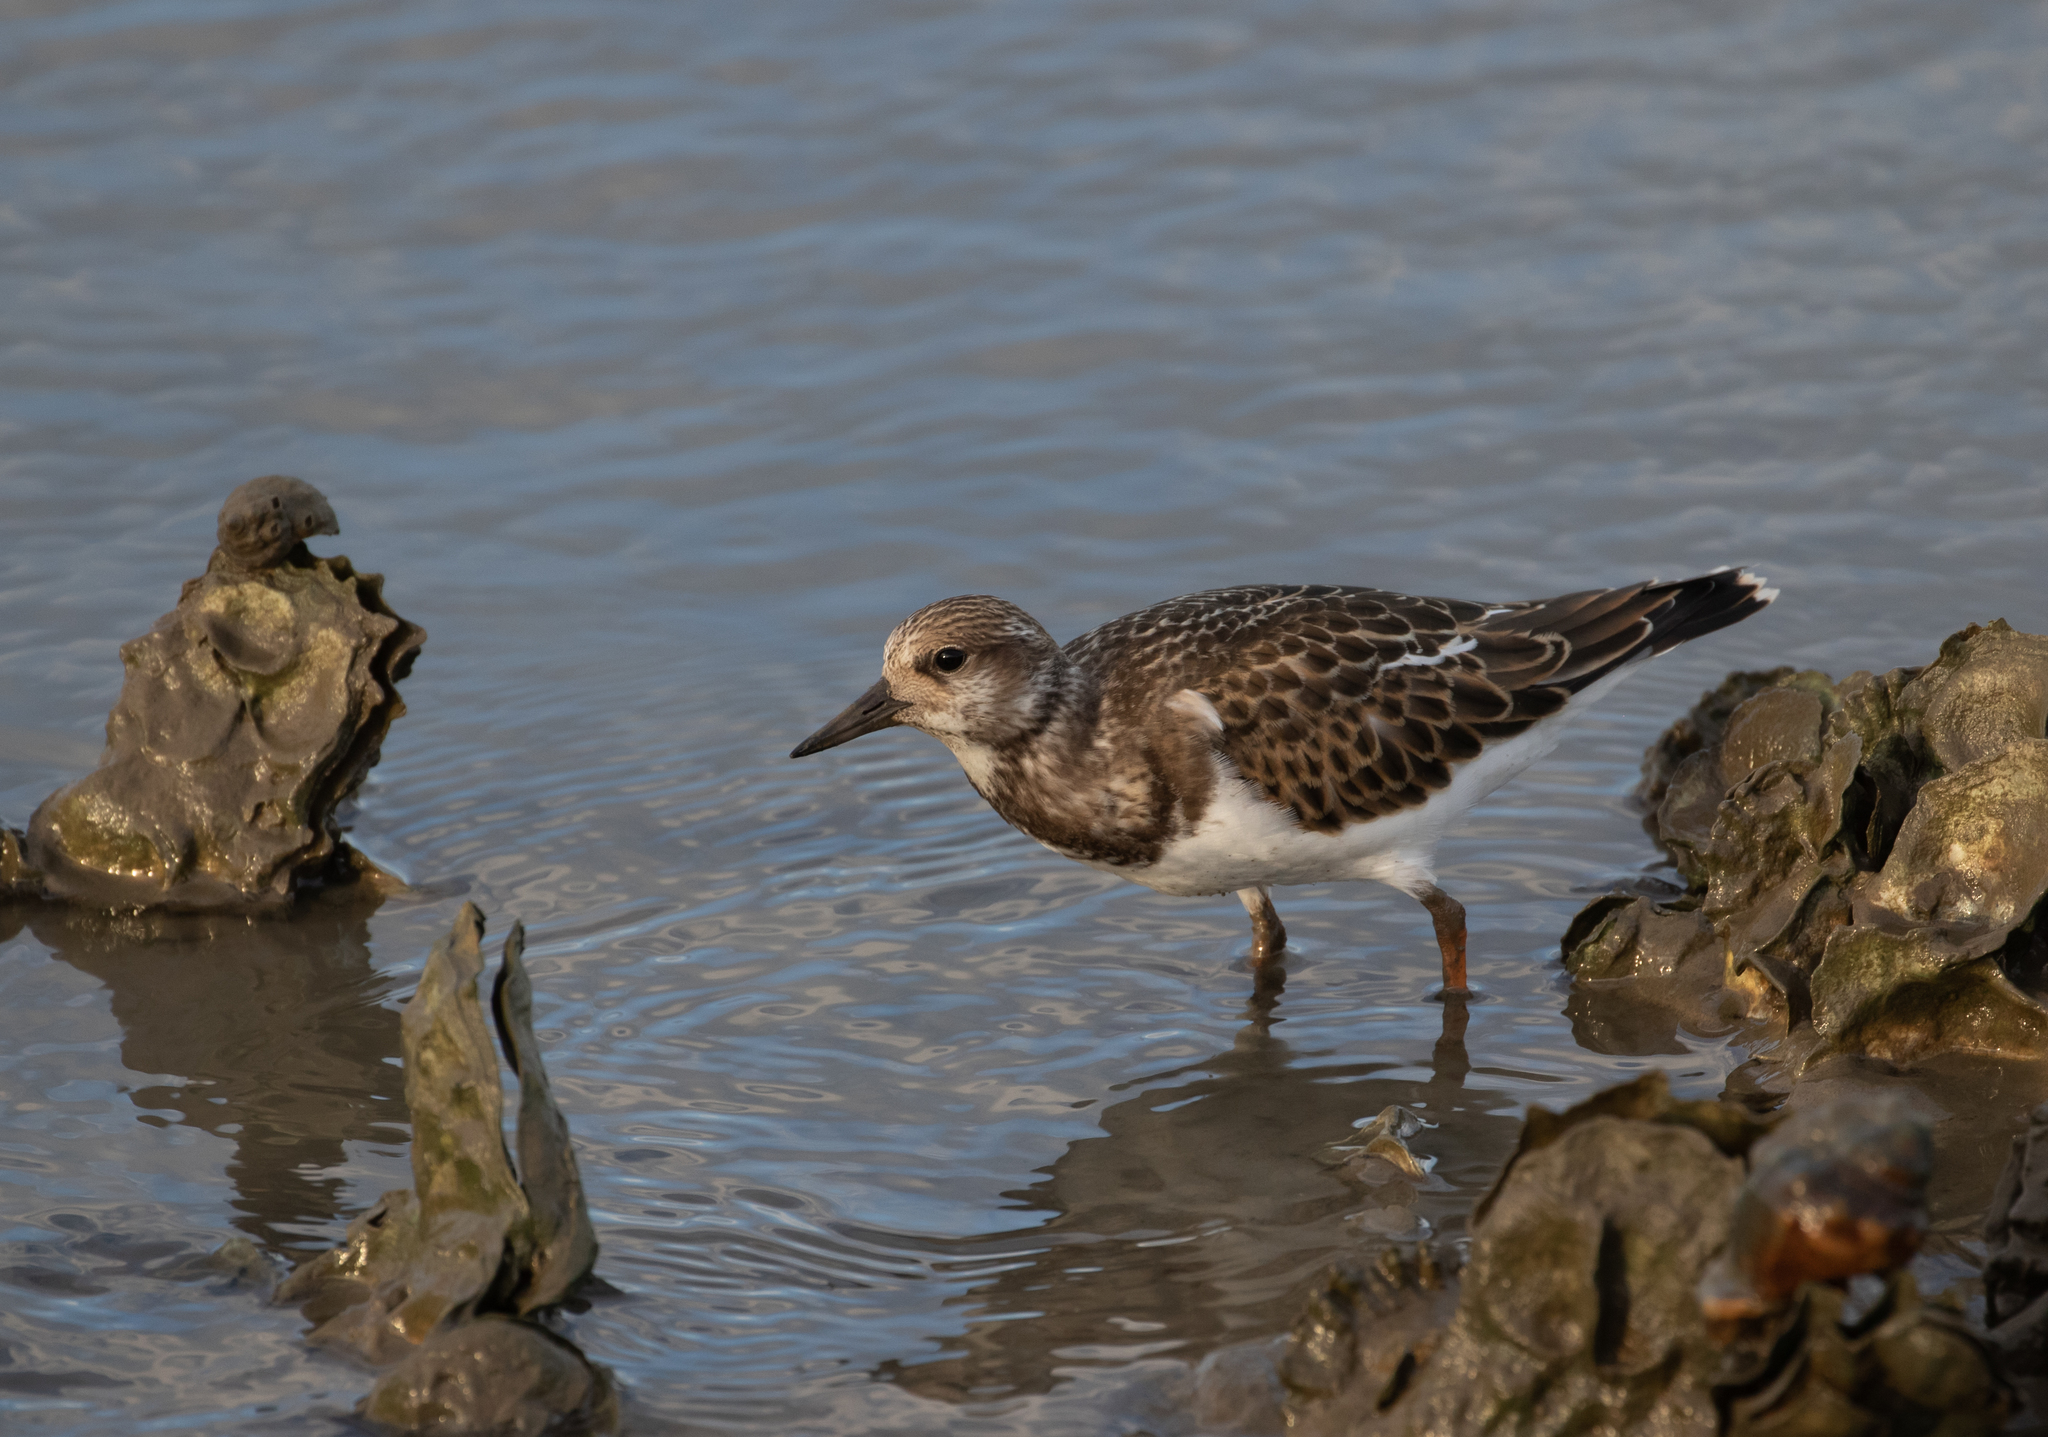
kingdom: Animalia
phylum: Chordata
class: Aves
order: Charadriiformes
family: Scolopacidae
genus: Arenaria
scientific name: Arenaria interpres
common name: Ruddy turnstone
